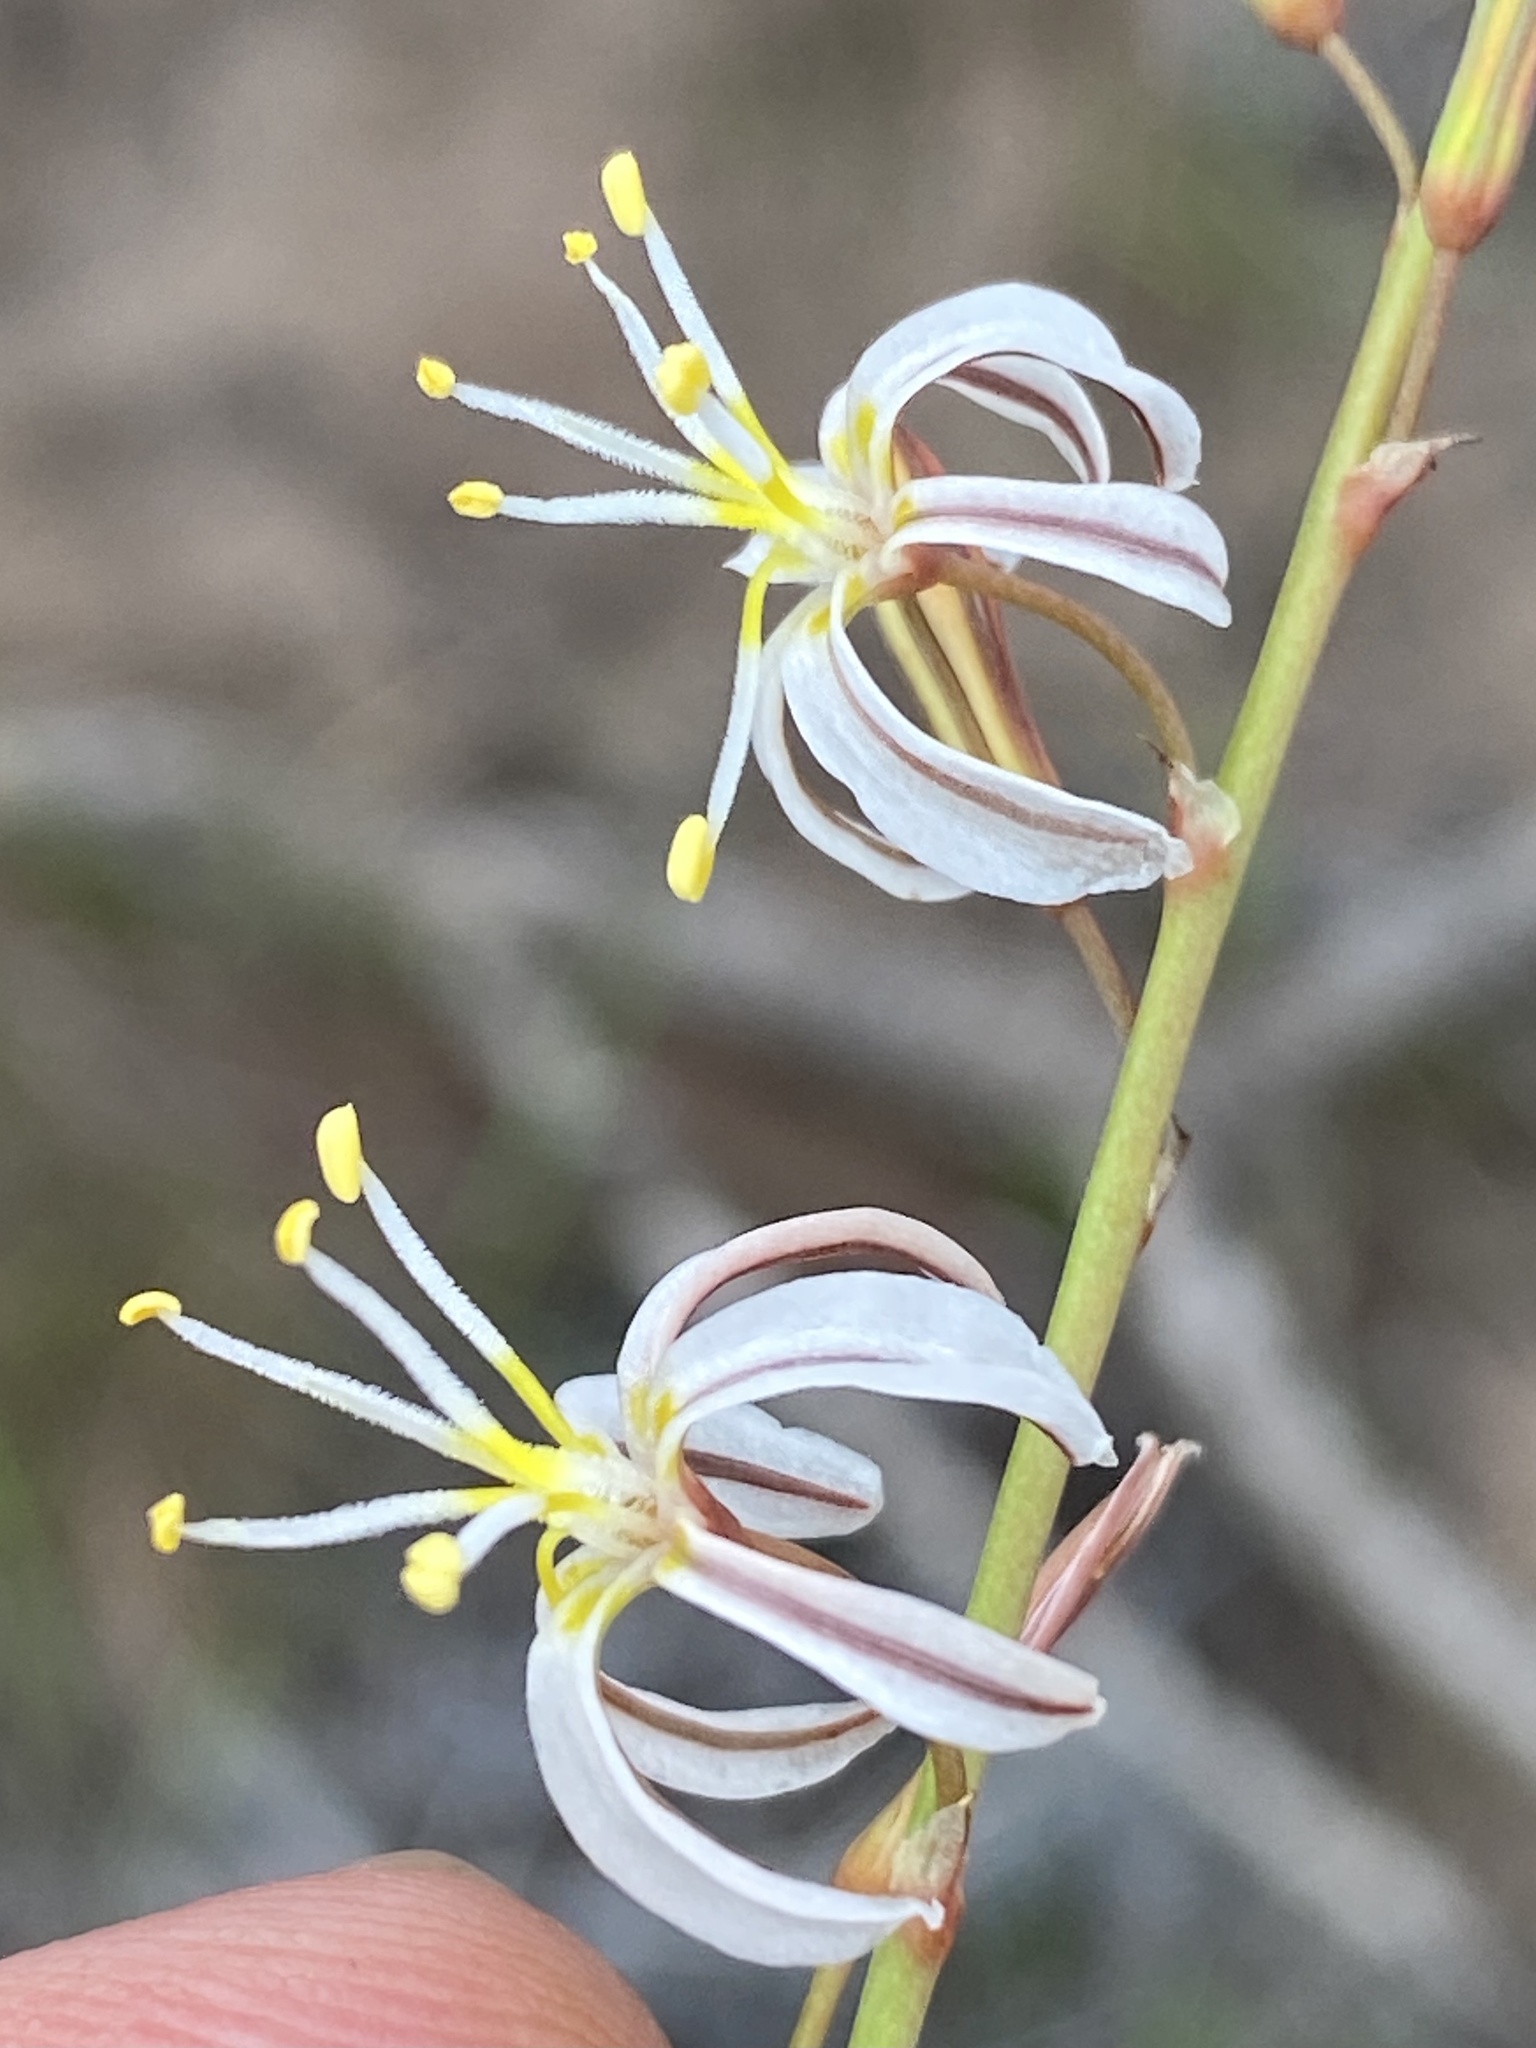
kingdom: Plantae
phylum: Tracheophyta
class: Liliopsida
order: Asparagales
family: Asphodelaceae
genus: Trachyandra
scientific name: Trachyandra divaricata
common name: Dune onionweed
